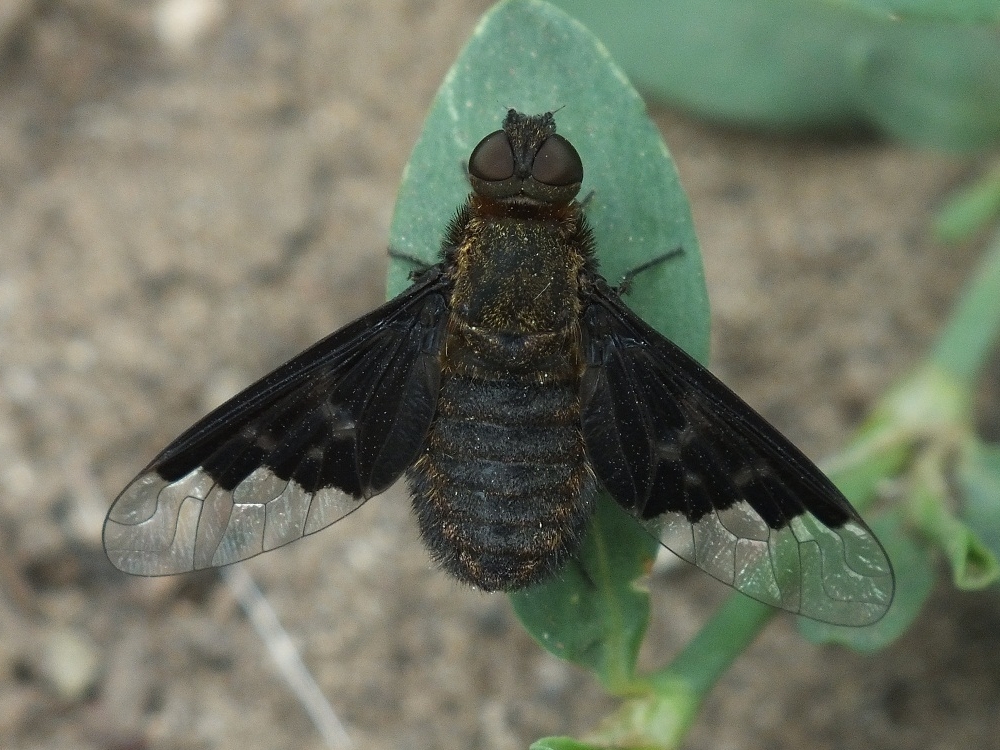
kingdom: Animalia
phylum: Arthropoda
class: Insecta
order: Diptera
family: Bombyliidae
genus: Hemipenthes
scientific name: Hemipenthes morio
